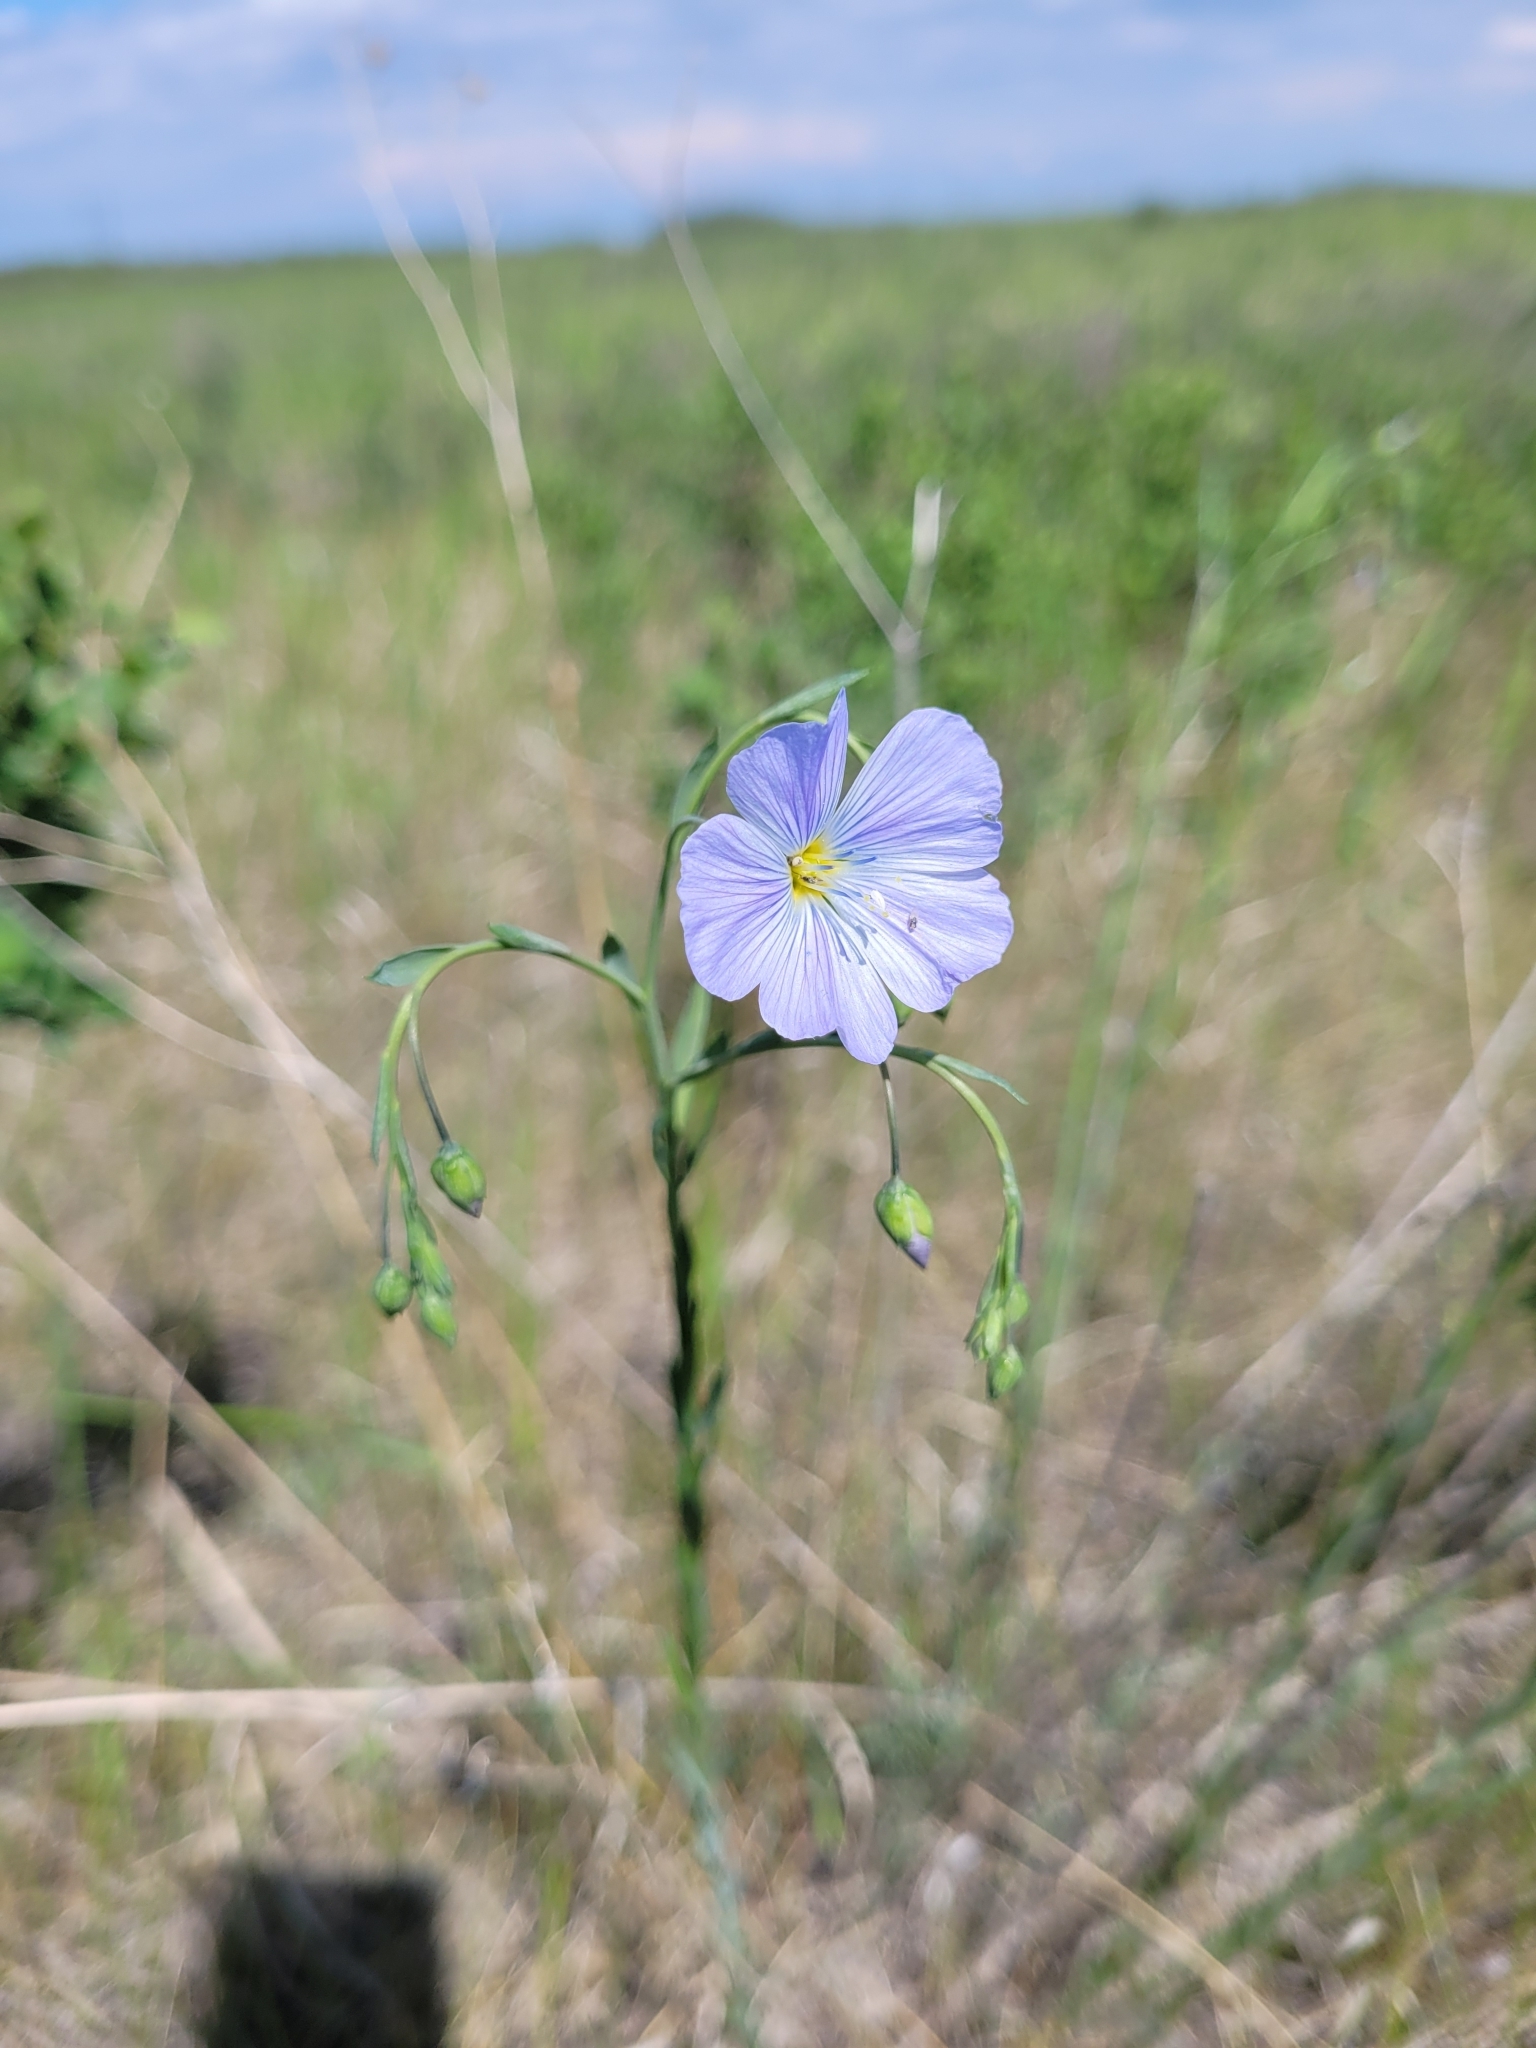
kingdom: Plantae
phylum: Tracheophyta
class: Magnoliopsida
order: Malpighiales
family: Linaceae
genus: Linum
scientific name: Linum lewisii
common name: Prairie flax
